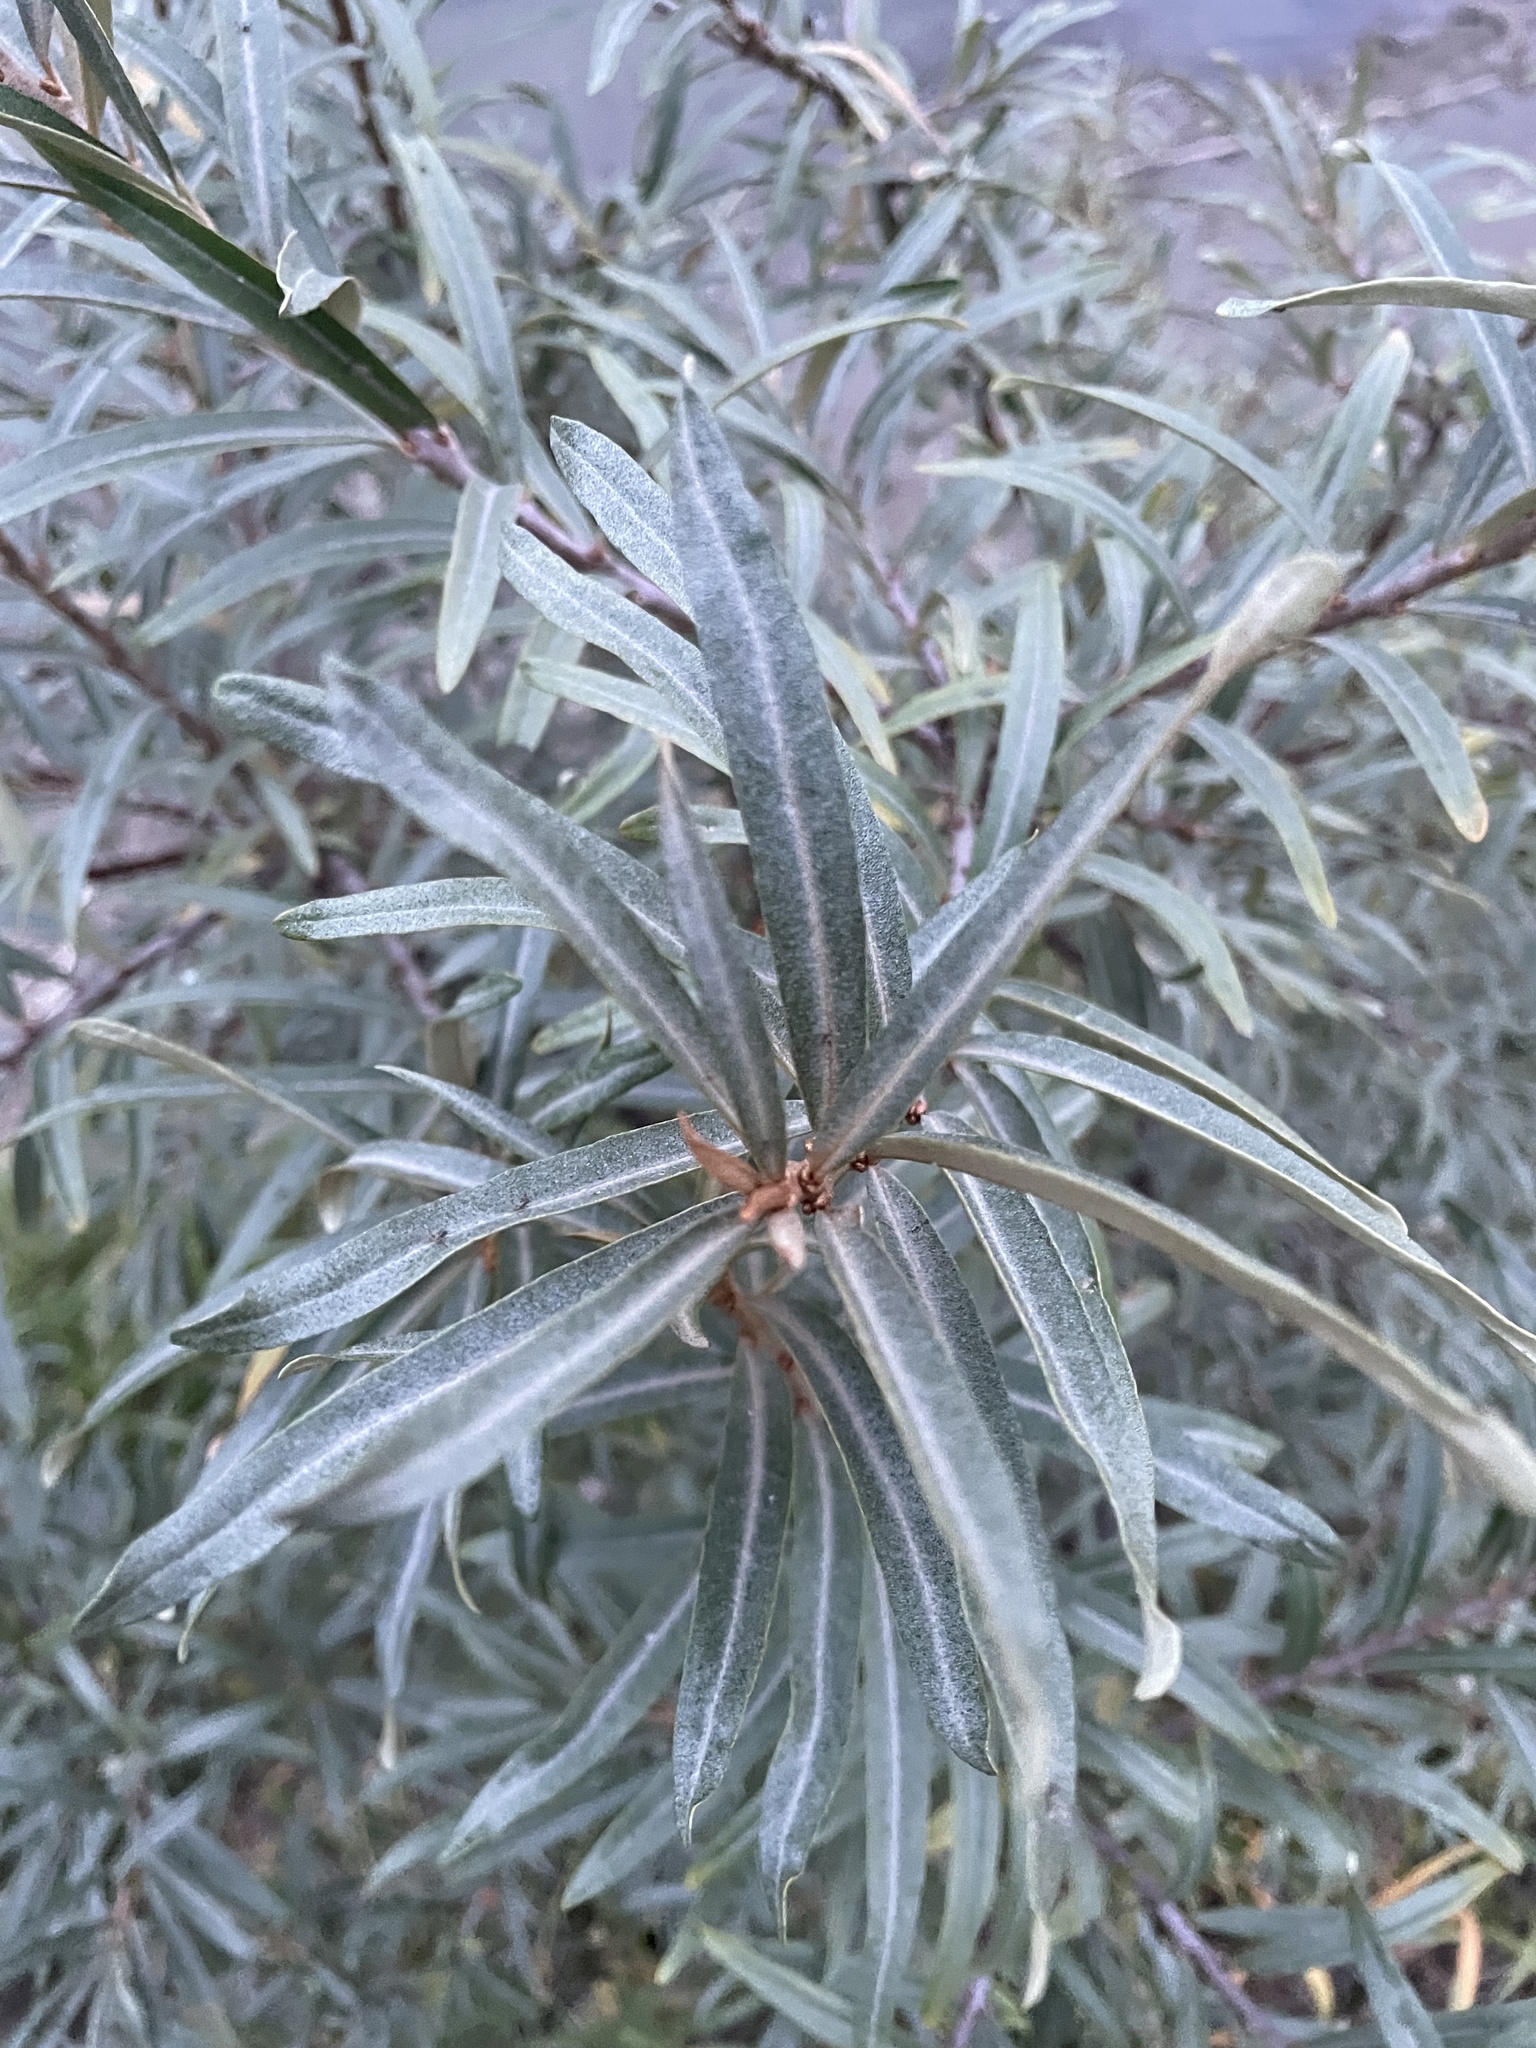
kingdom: Plantae
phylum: Tracheophyta
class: Magnoliopsida
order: Rosales
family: Elaeagnaceae
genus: Hippophae
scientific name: Hippophae rhamnoides
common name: Sea-buckthorn
